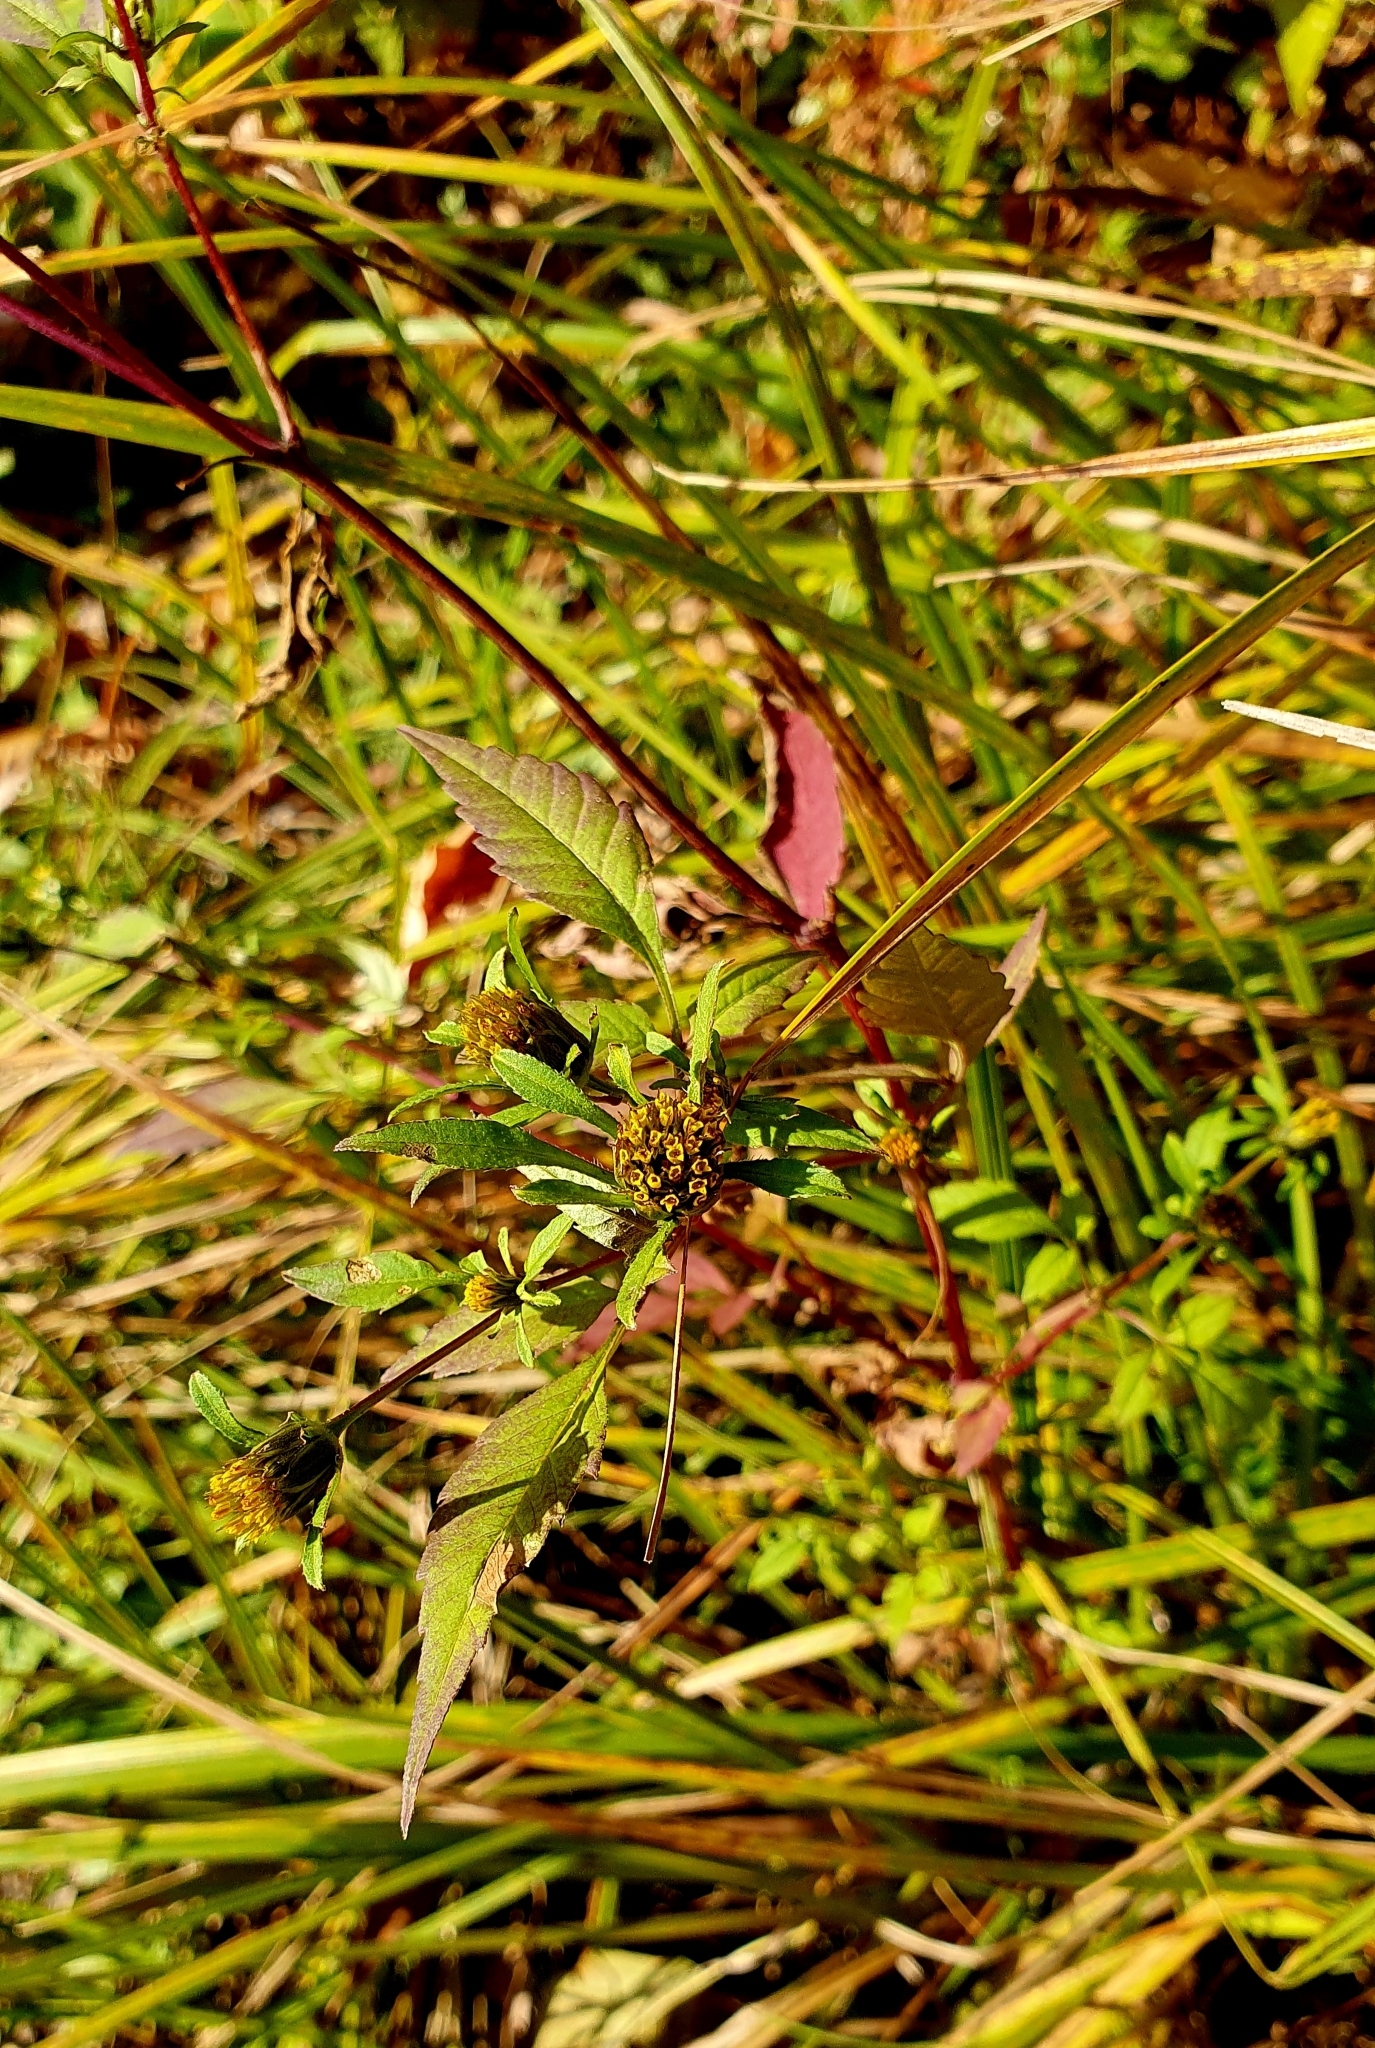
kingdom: Plantae
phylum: Tracheophyta
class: Magnoliopsida
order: Asterales
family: Asteraceae
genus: Bidens
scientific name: Bidens frondosa
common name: Beggarticks
